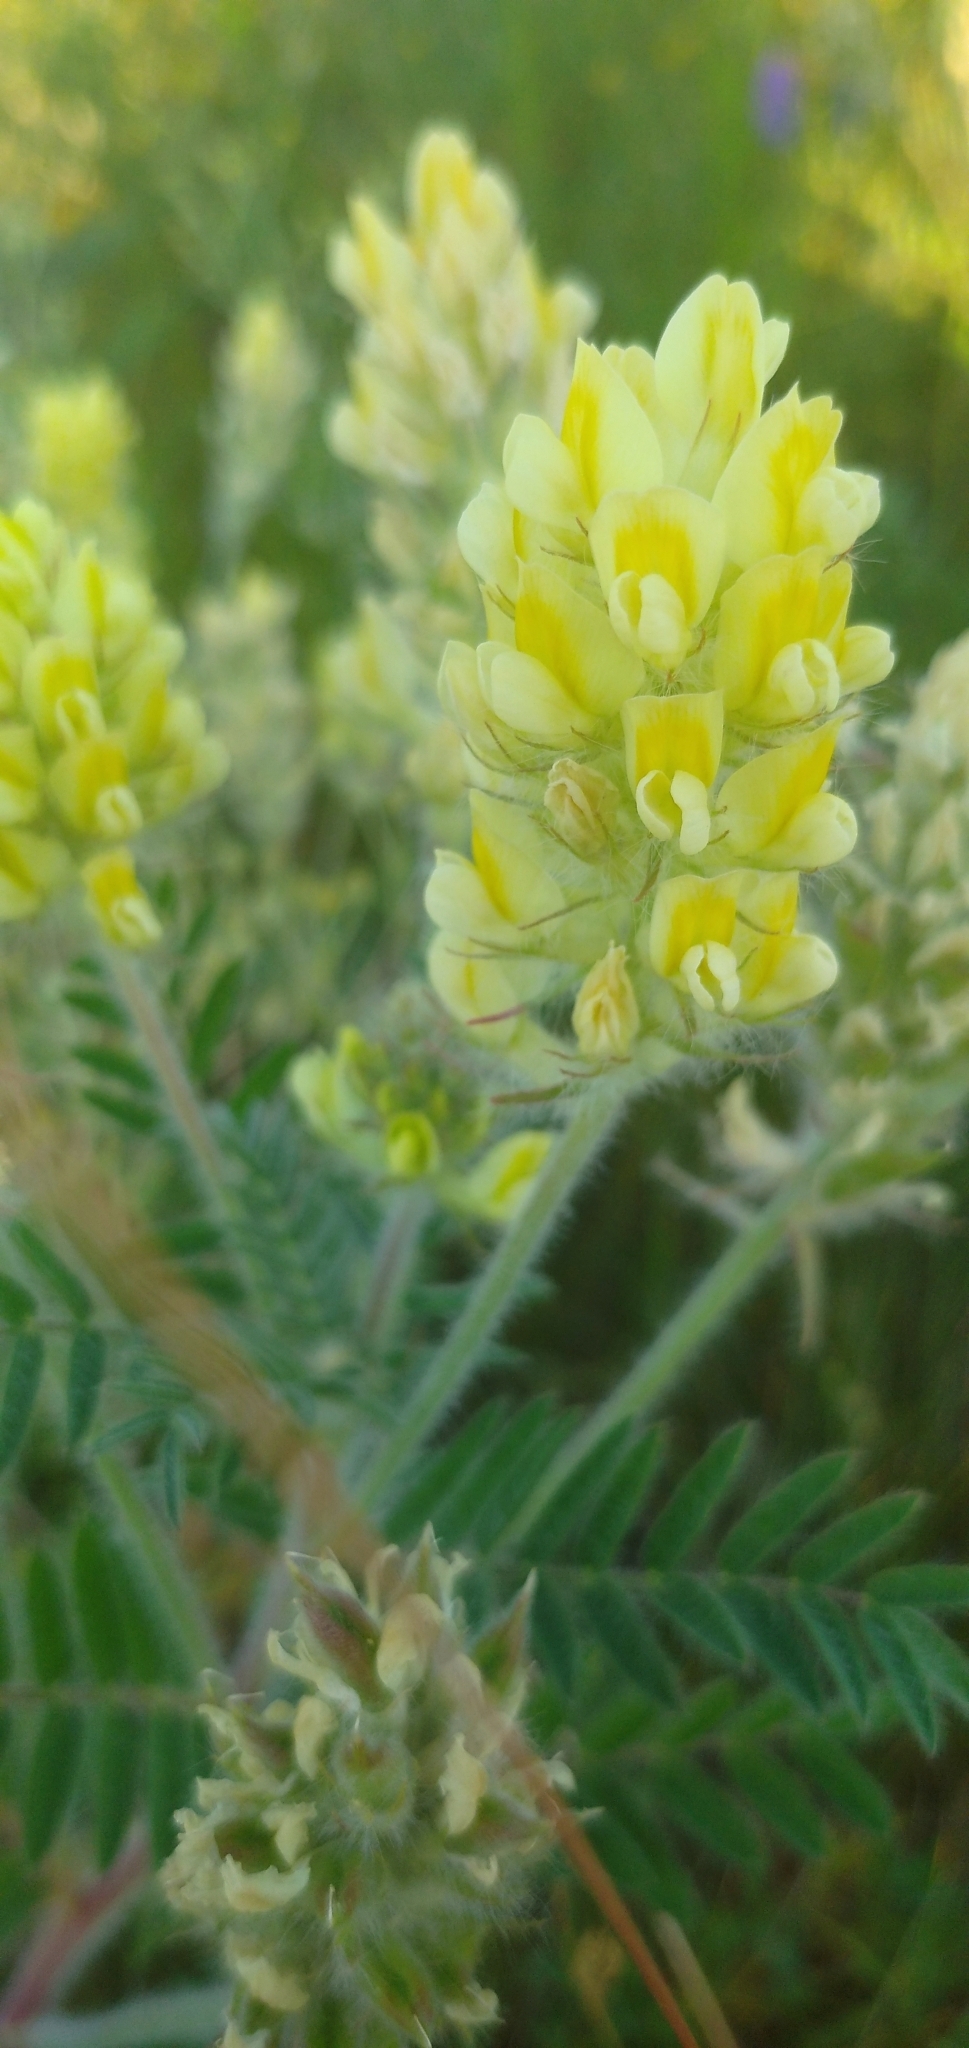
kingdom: Plantae
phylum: Tracheophyta
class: Magnoliopsida
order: Fabales
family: Fabaceae
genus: Oxytropis
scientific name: Oxytropis pilosa
